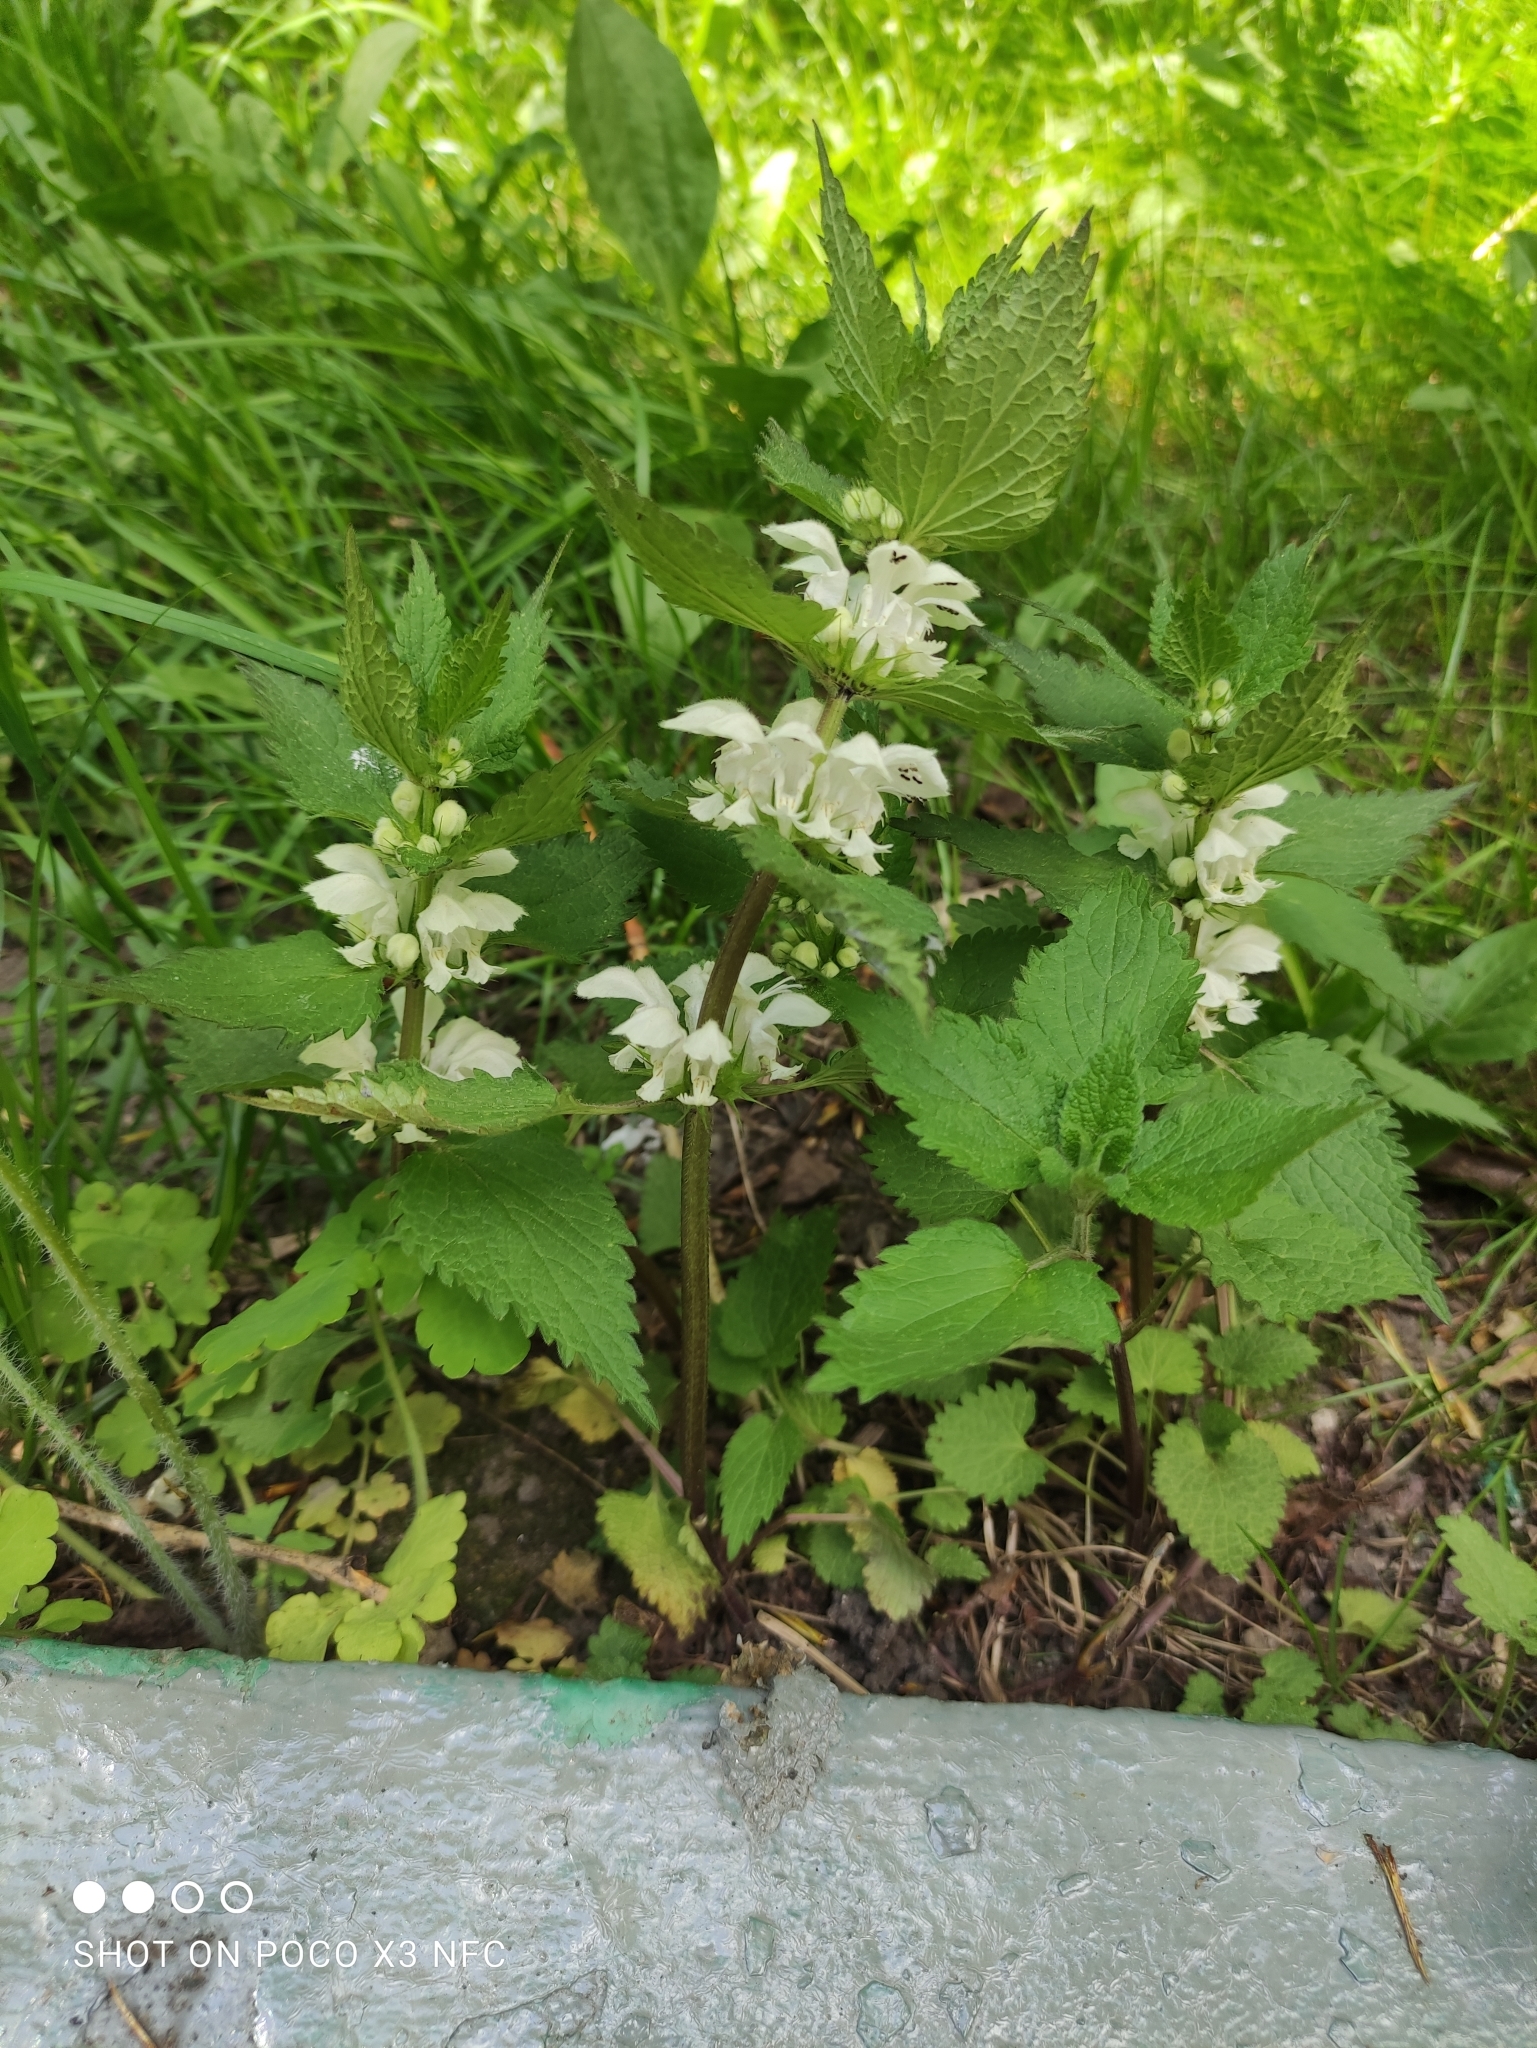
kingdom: Plantae
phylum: Tracheophyta
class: Magnoliopsida
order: Lamiales
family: Lamiaceae
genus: Lamium
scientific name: Lamium album
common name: White dead-nettle
